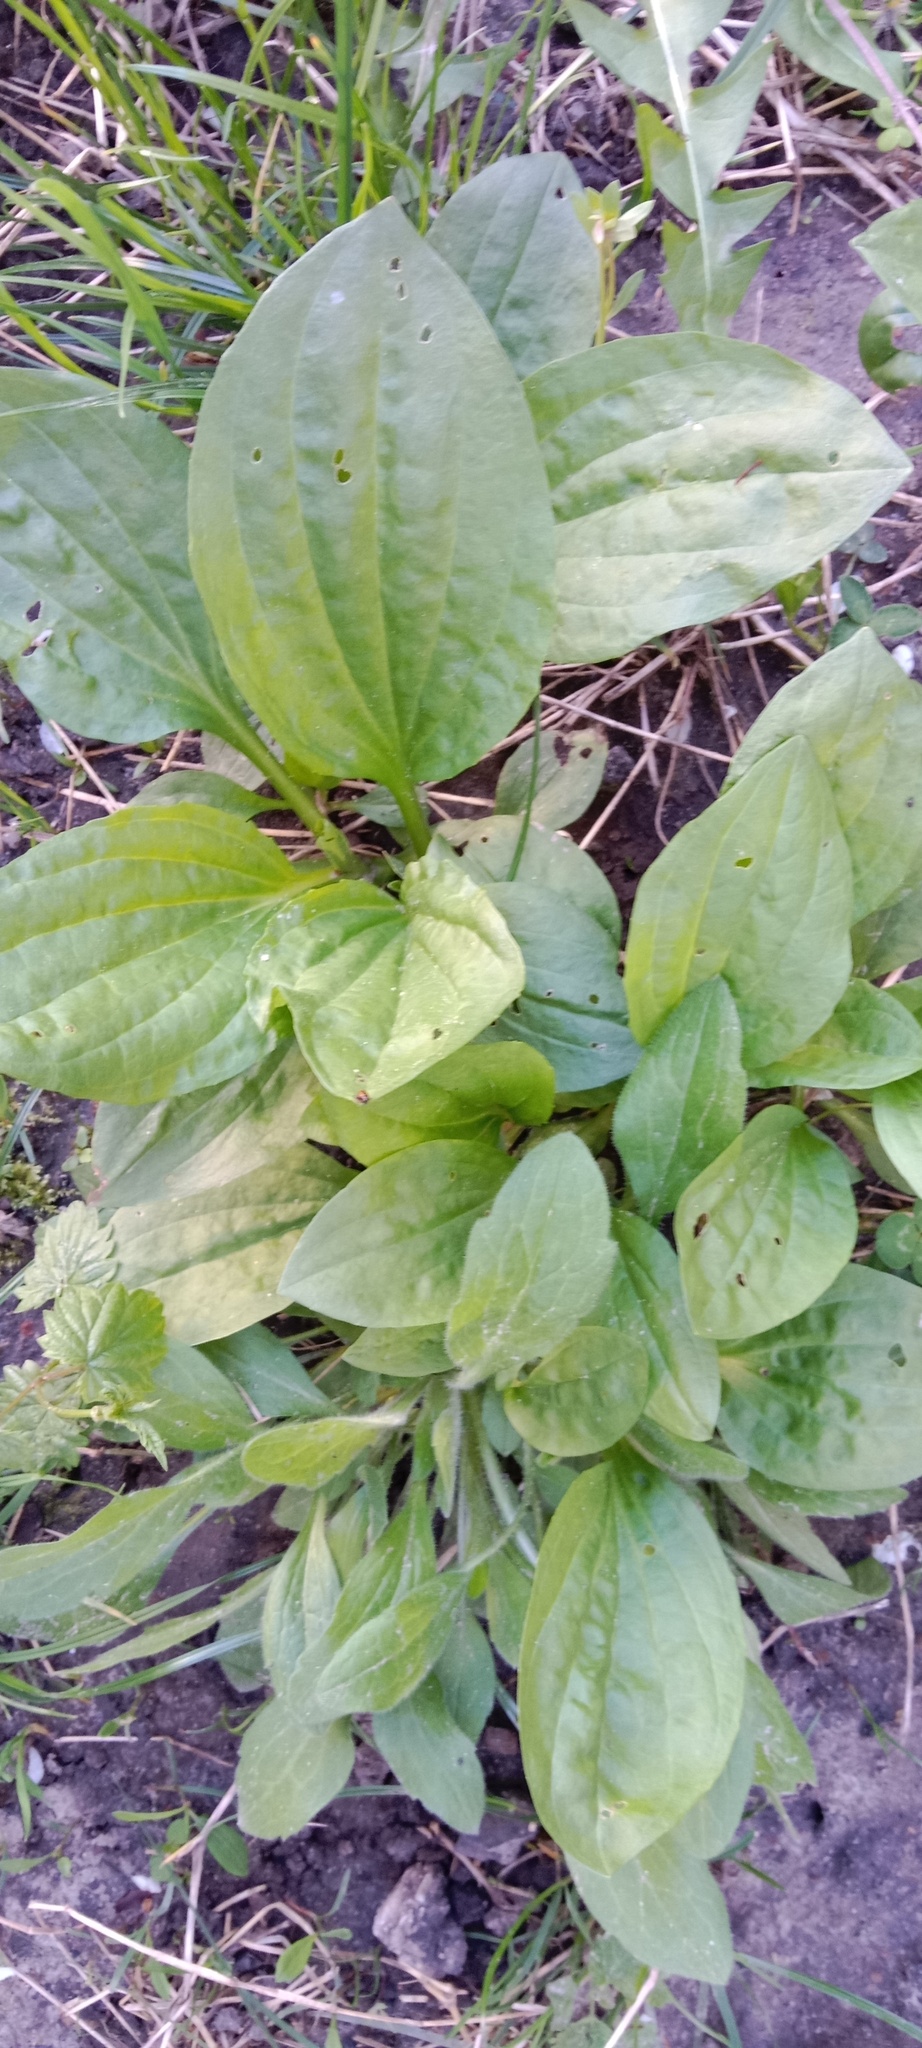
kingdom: Plantae
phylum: Tracheophyta
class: Magnoliopsida
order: Lamiales
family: Plantaginaceae
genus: Plantago
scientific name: Plantago major
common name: Common plantain
